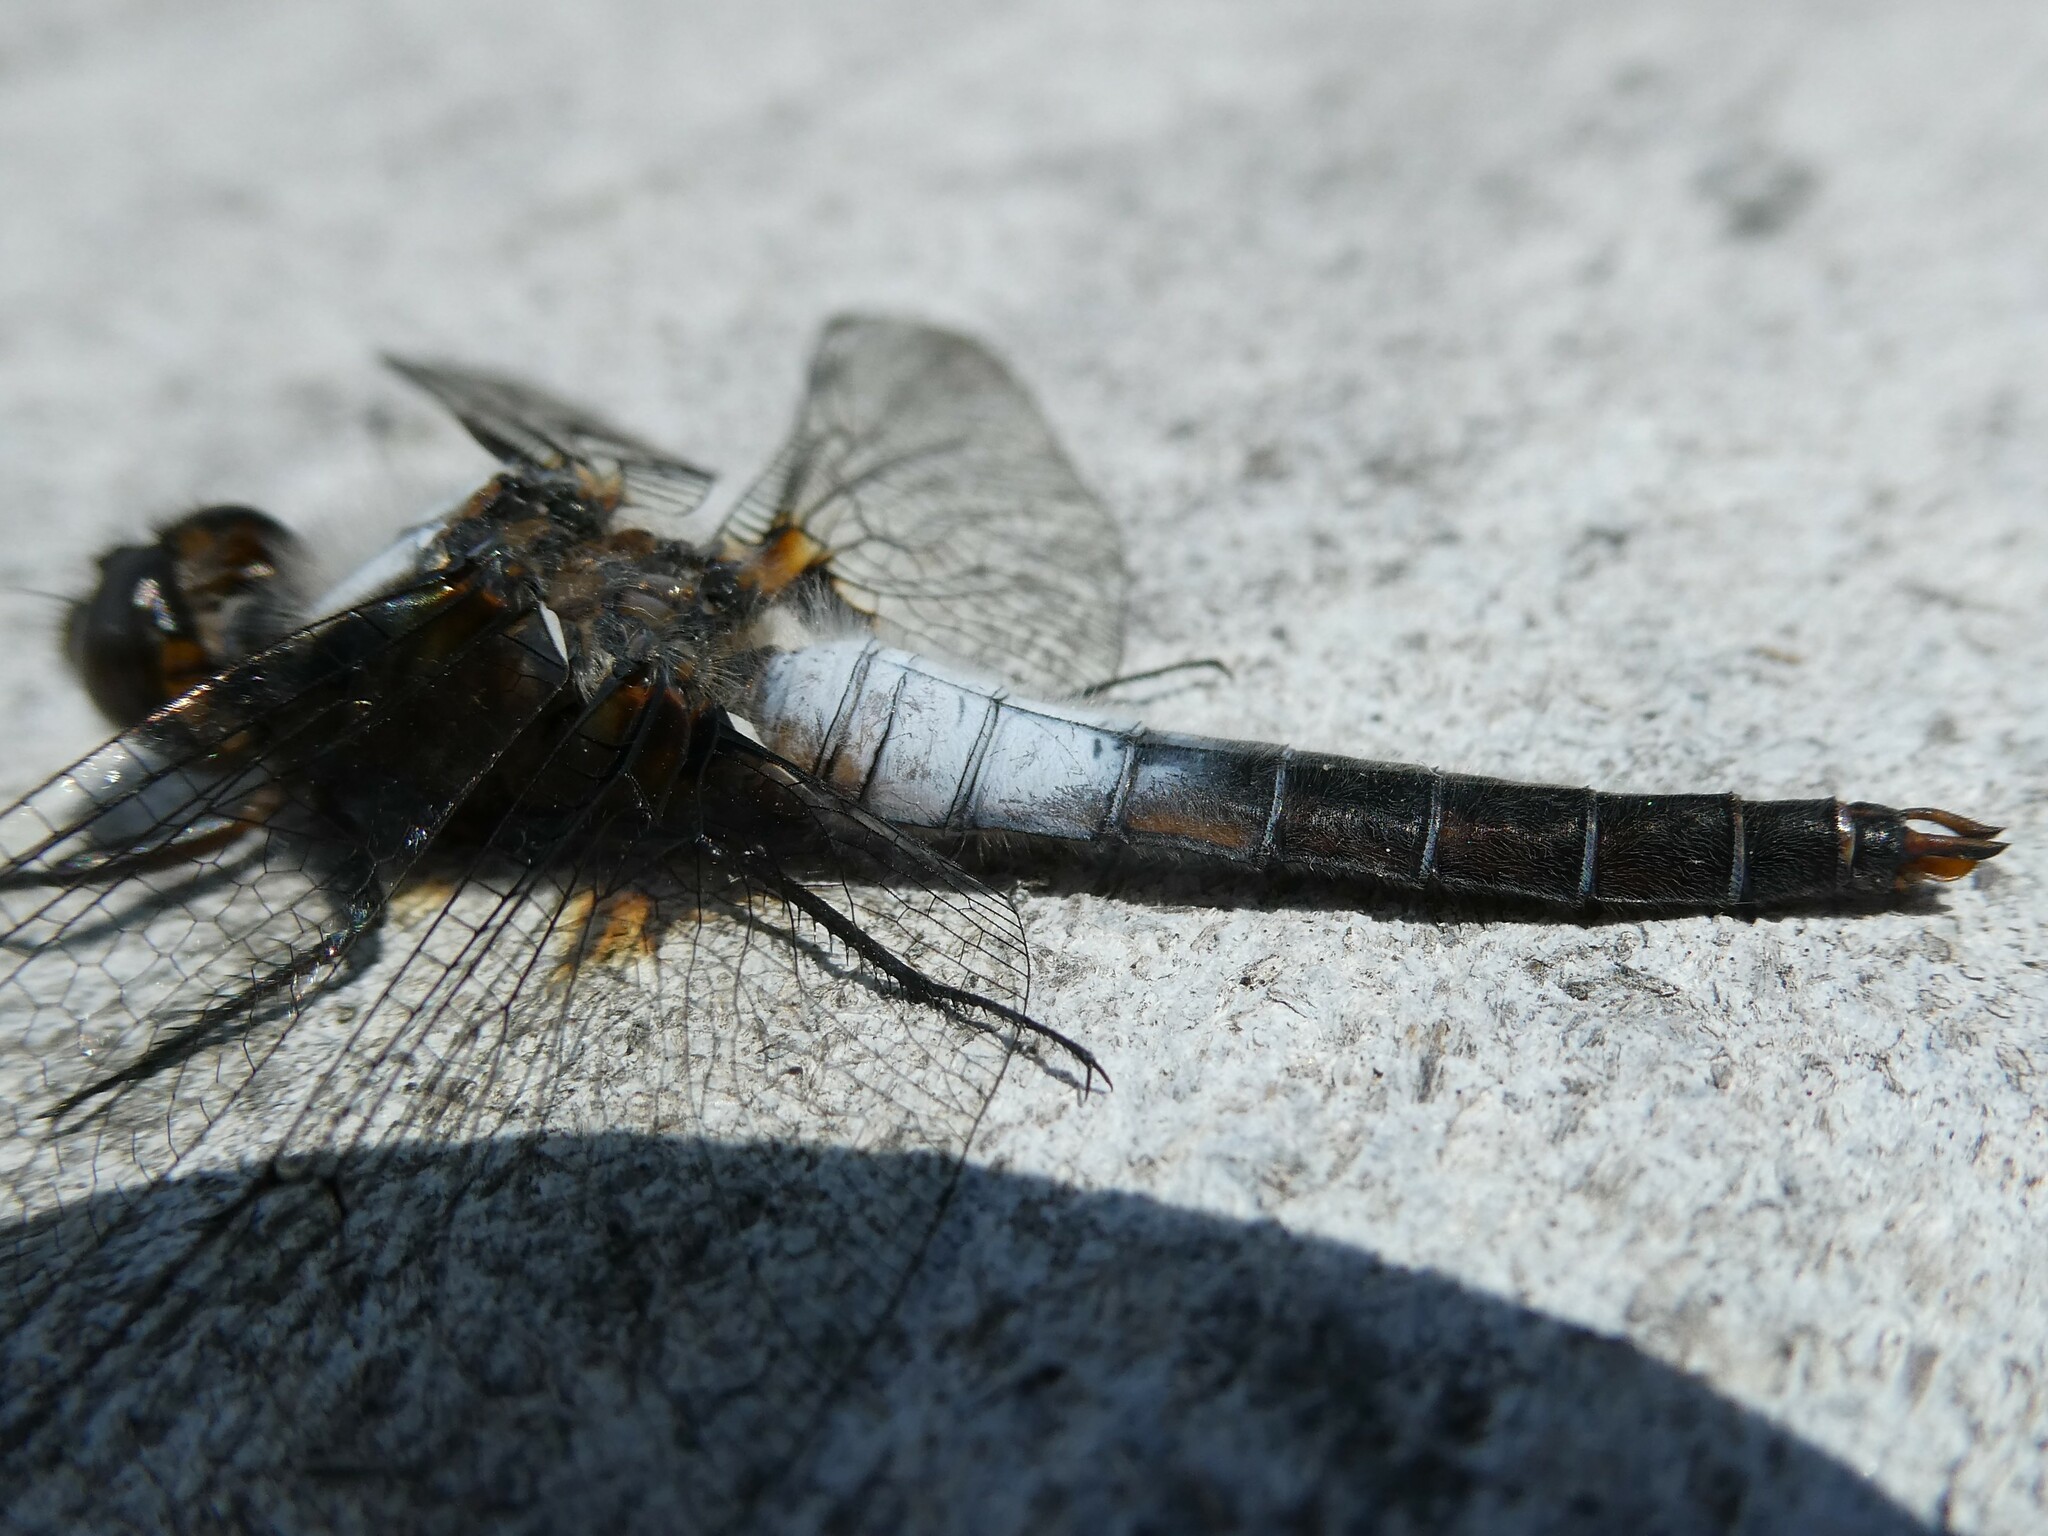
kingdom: Animalia
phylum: Arthropoda
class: Insecta
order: Odonata
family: Libellulidae
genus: Ladona
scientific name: Ladona julia
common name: Chalk-fronted corporal
